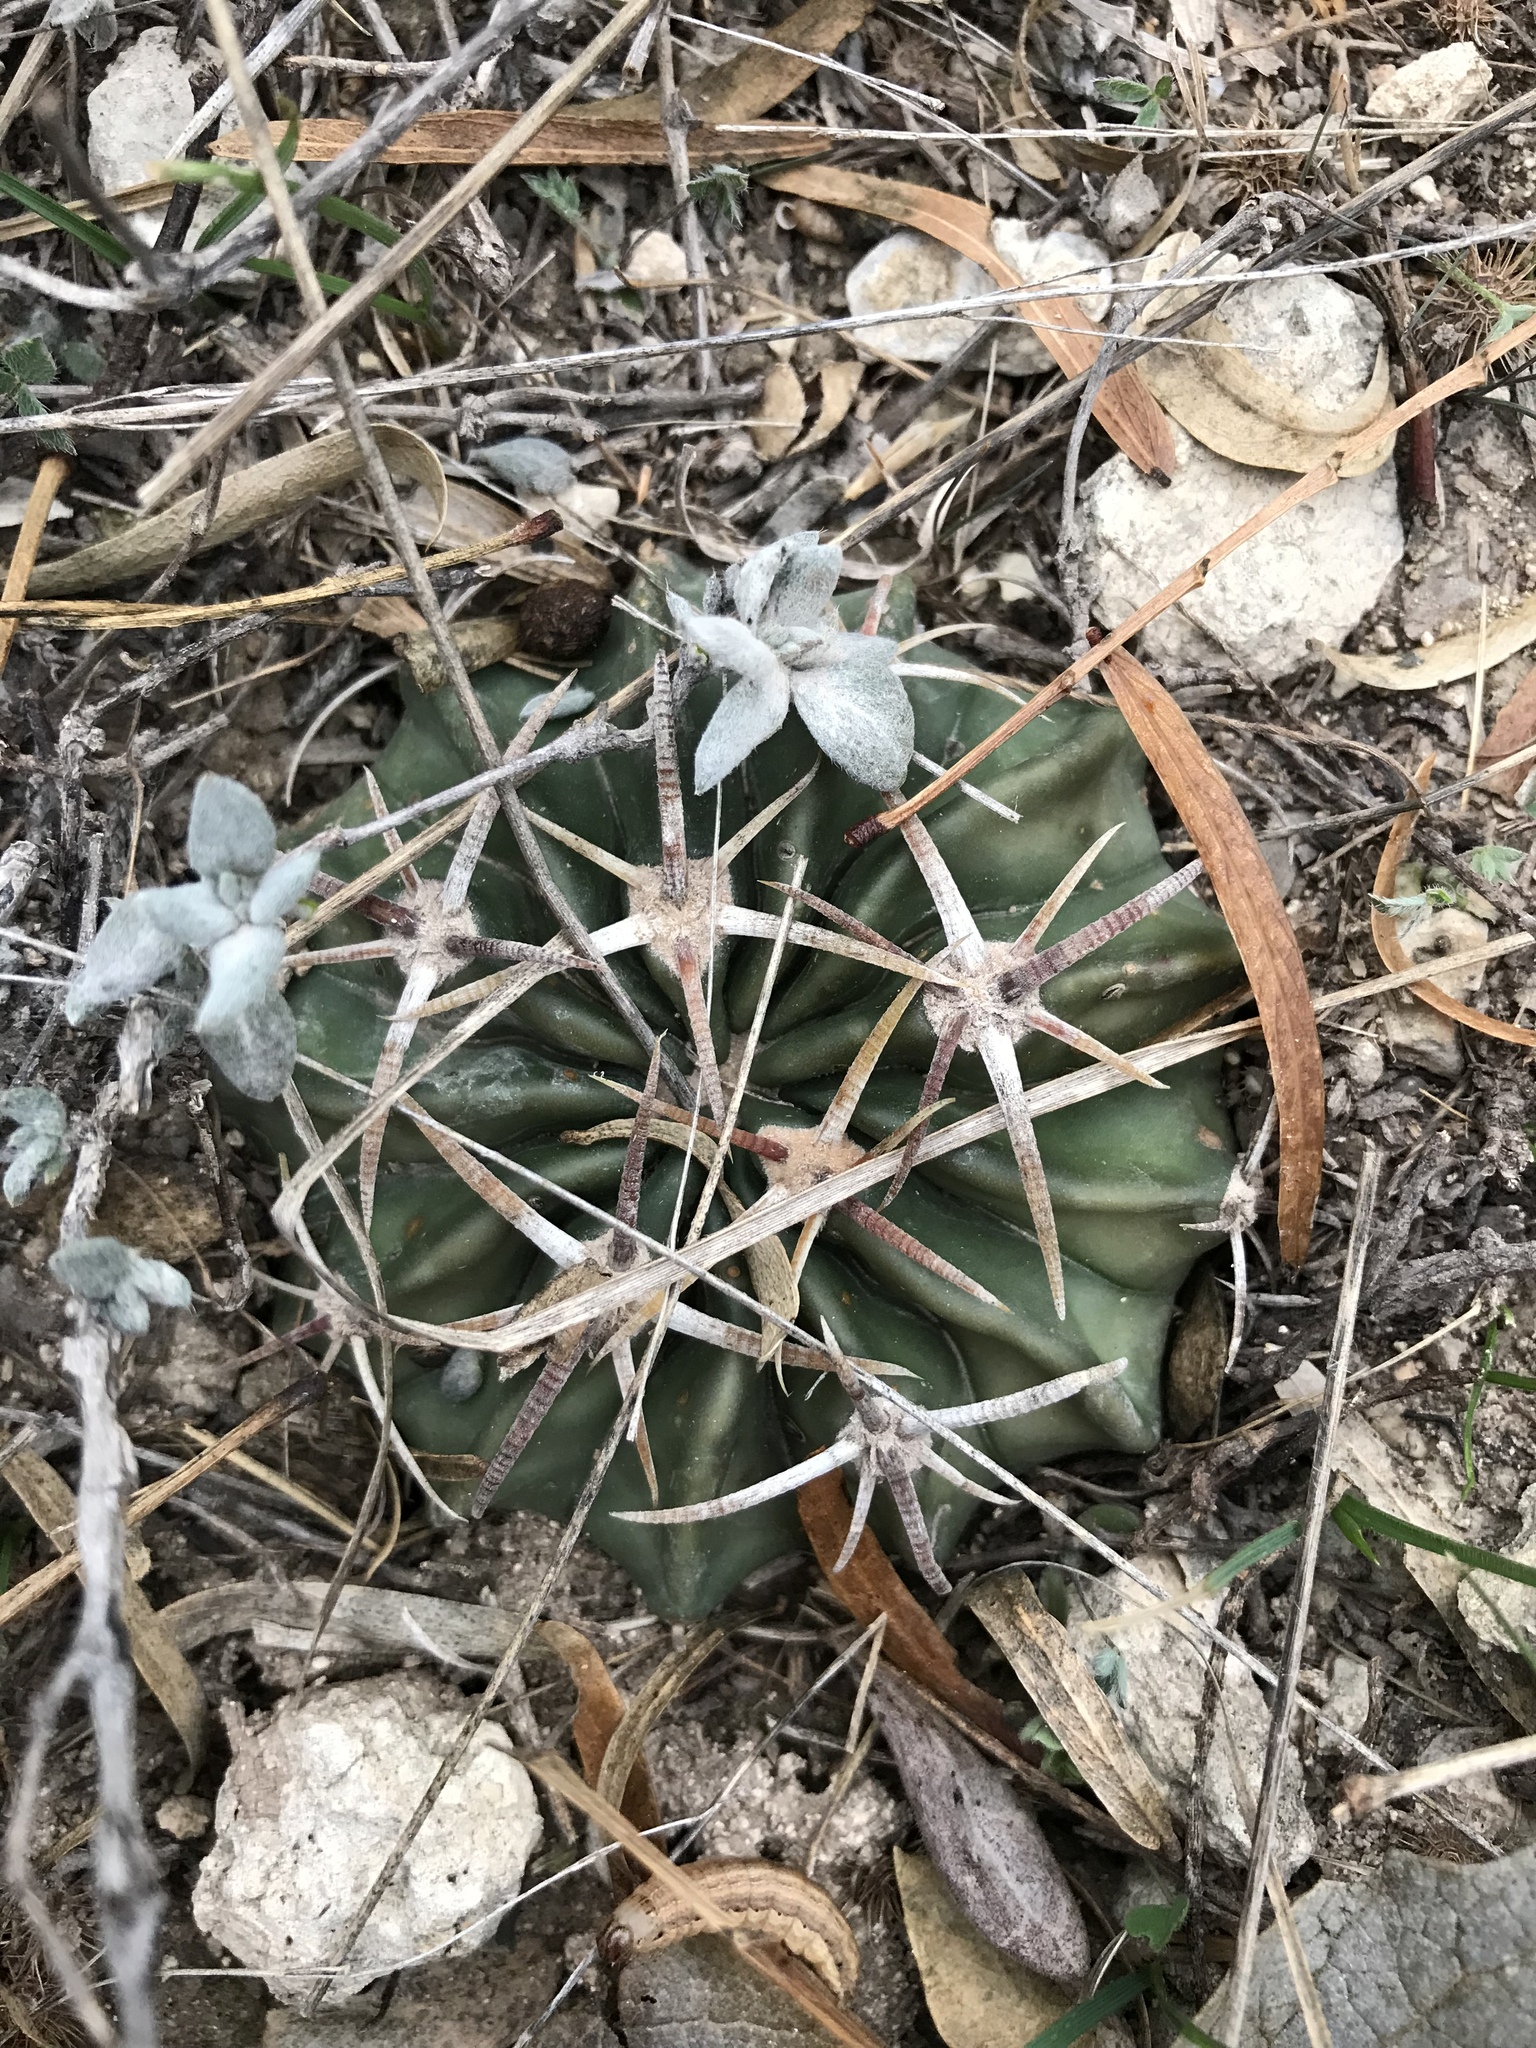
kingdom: Plantae
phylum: Tracheophyta
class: Magnoliopsida
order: Caryophyllales
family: Cactaceae
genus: Echinocactus
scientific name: Echinocactus texensis
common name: Devil's pincushion
